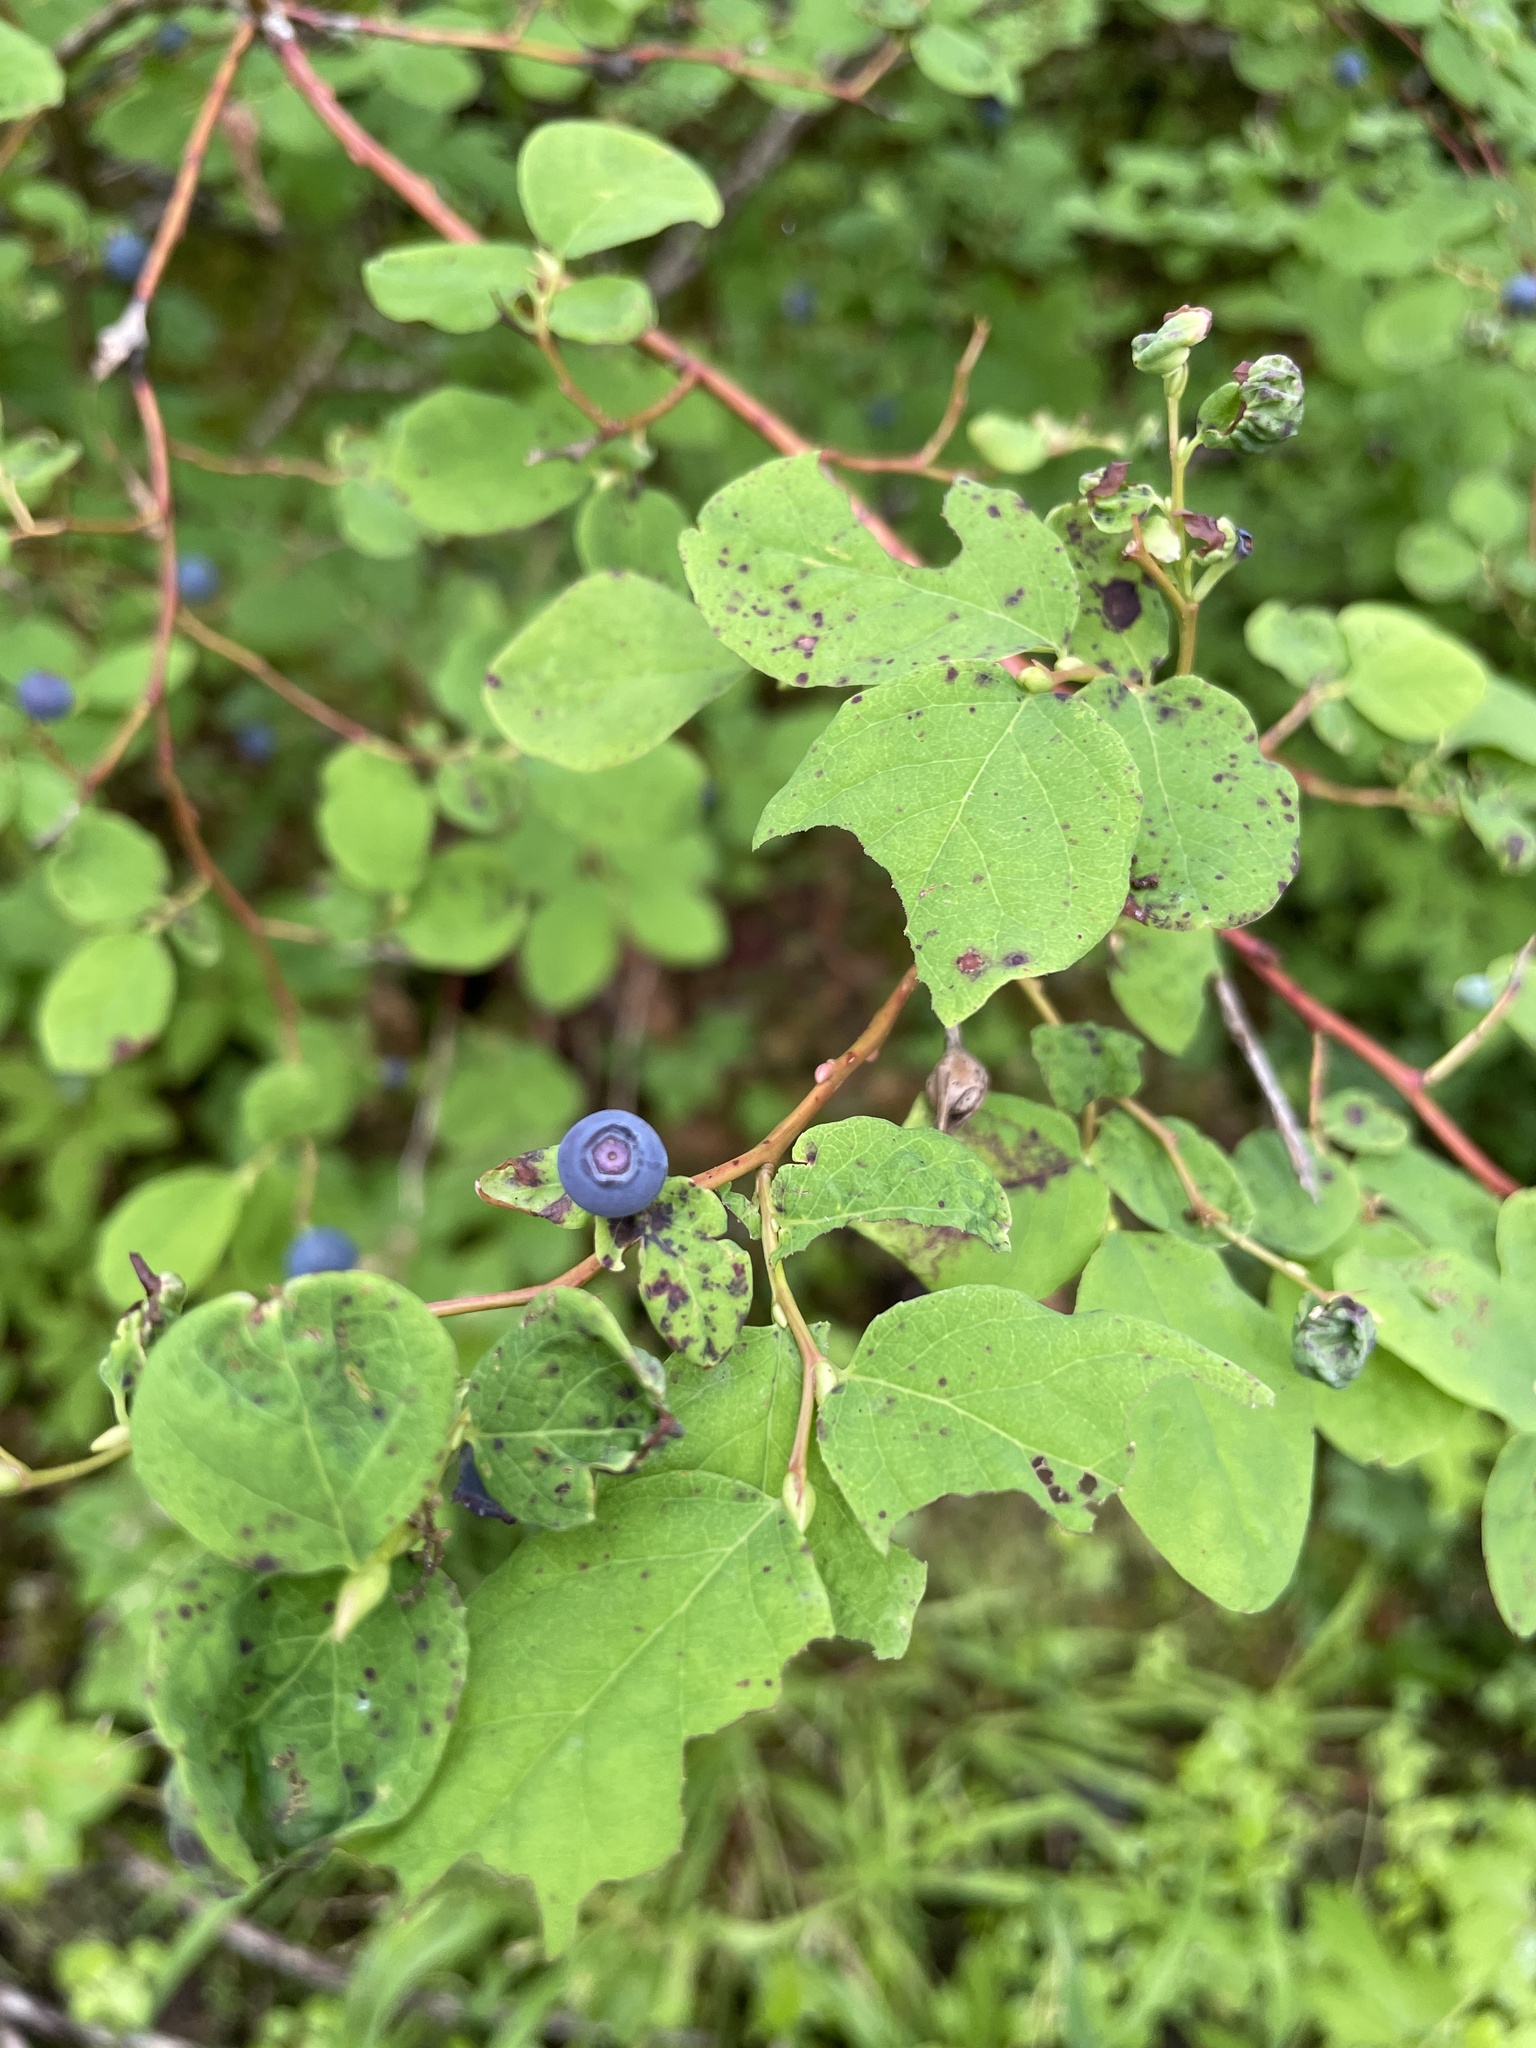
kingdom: Plantae
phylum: Tracheophyta
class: Magnoliopsida
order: Ericales
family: Ericaceae
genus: Vaccinium
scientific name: Vaccinium ovalifolium
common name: Early blueberry
